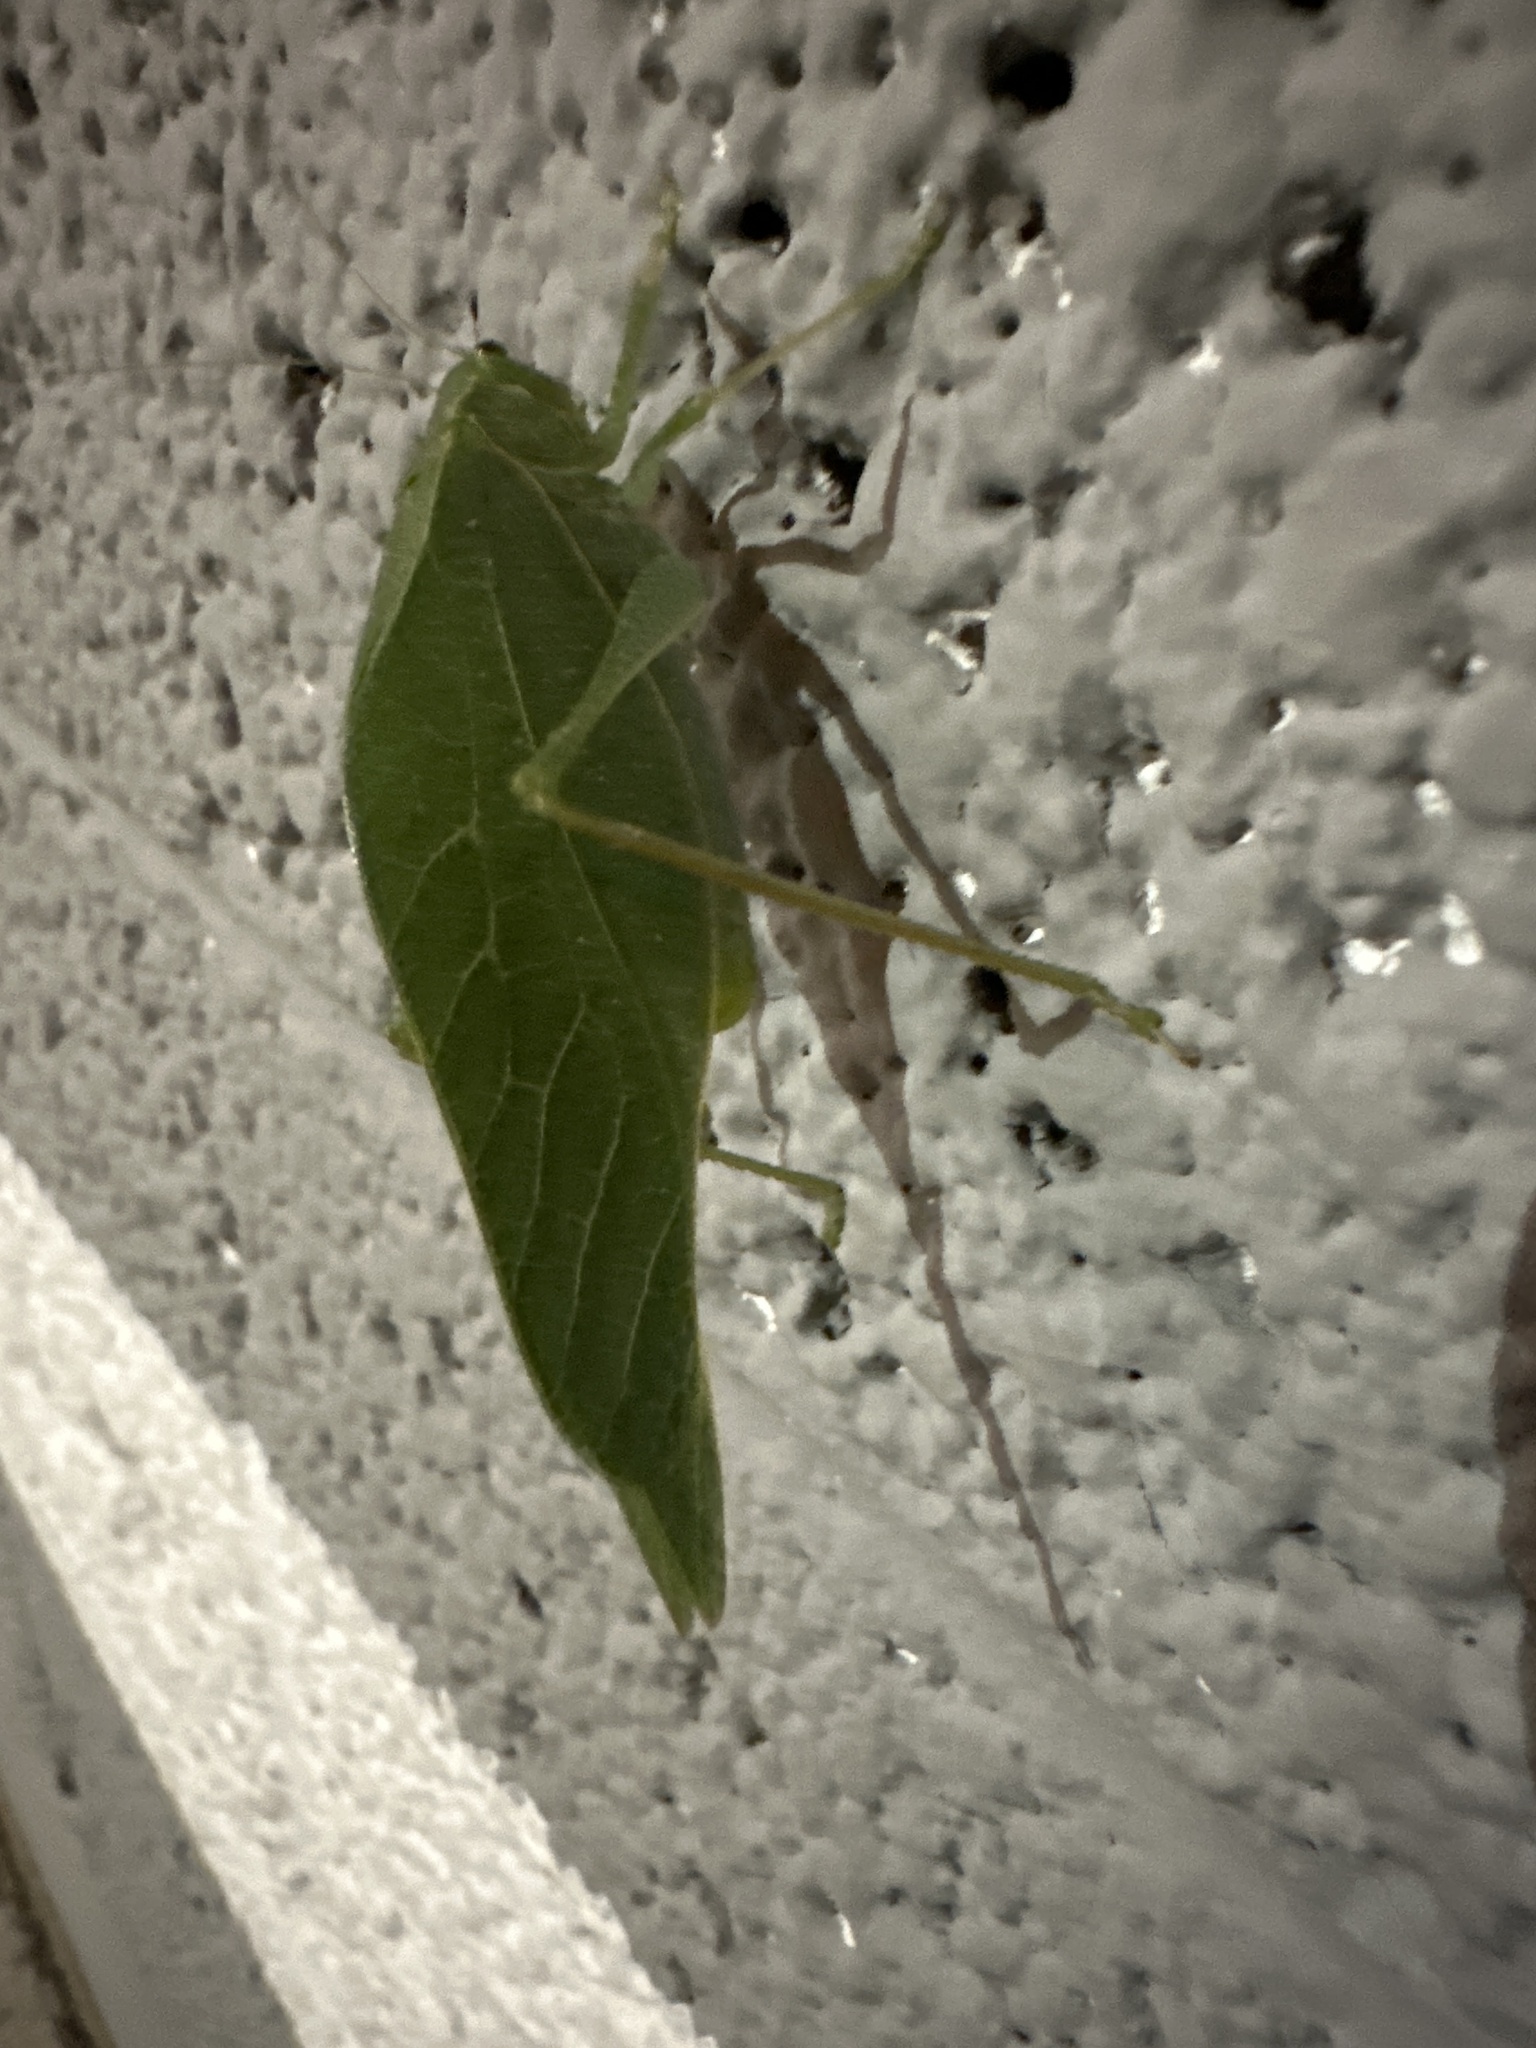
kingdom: Animalia
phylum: Arthropoda
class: Insecta
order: Orthoptera
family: Tettigoniidae
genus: Microcentrum
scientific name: Microcentrum rhombifolium
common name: Broad-winged katydid
